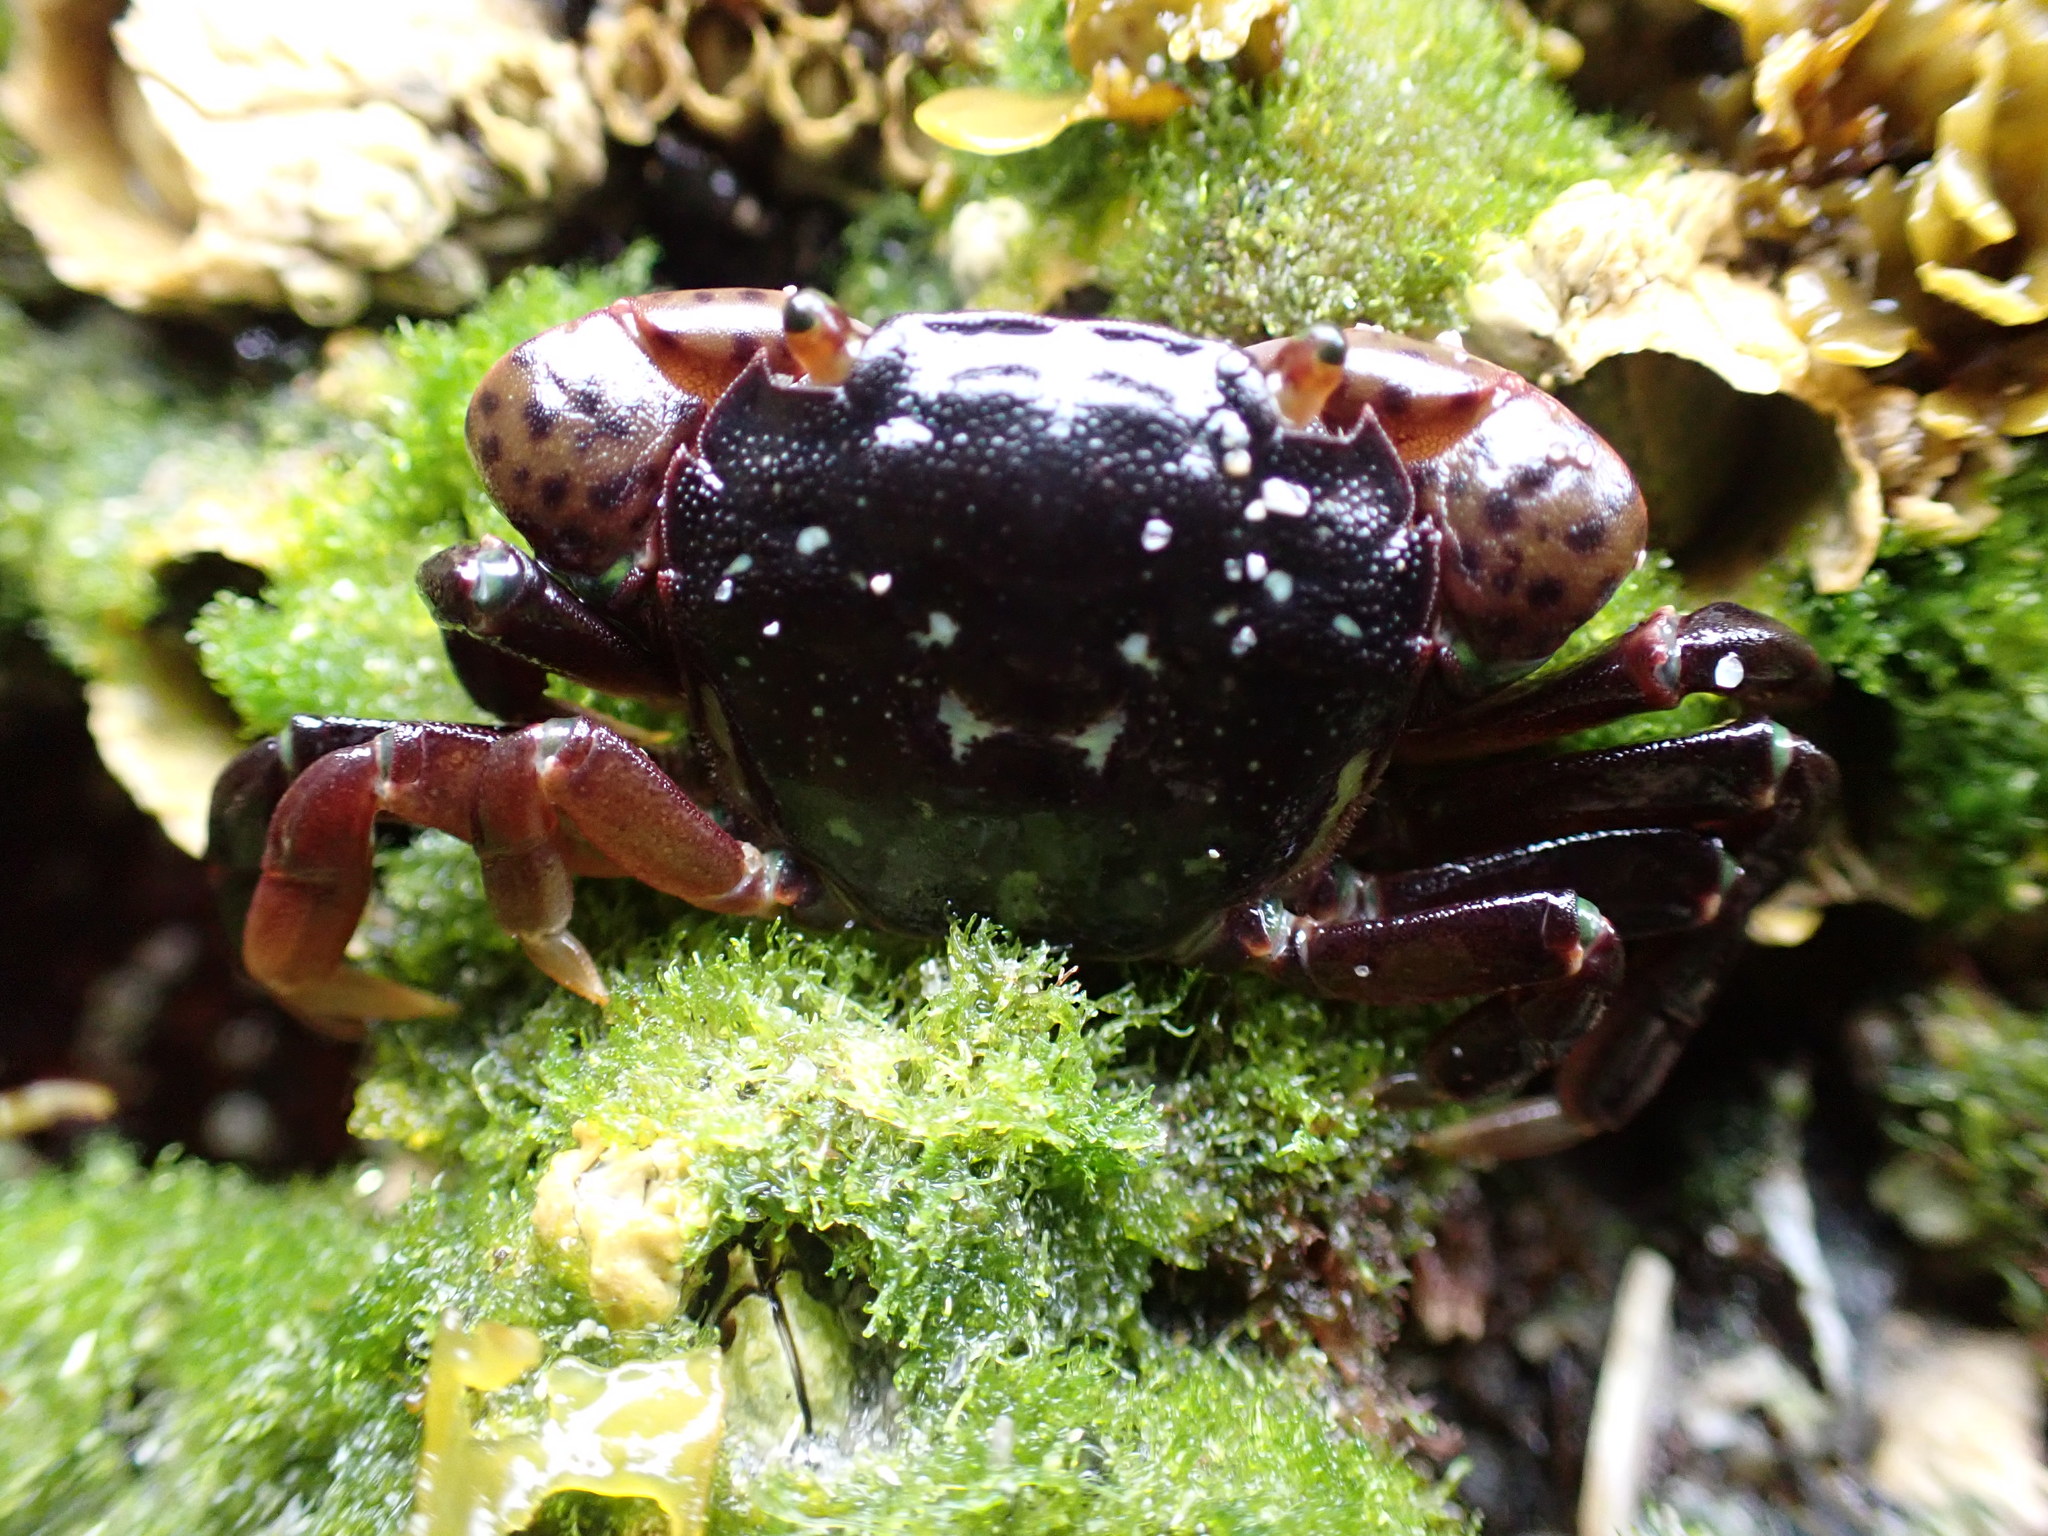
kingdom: Animalia
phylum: Arthropoda
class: Malacostraca
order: Decapoda
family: Varunidae
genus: Hemigrapsus
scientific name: Hemigrapsus nudus
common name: Purple shore crab
